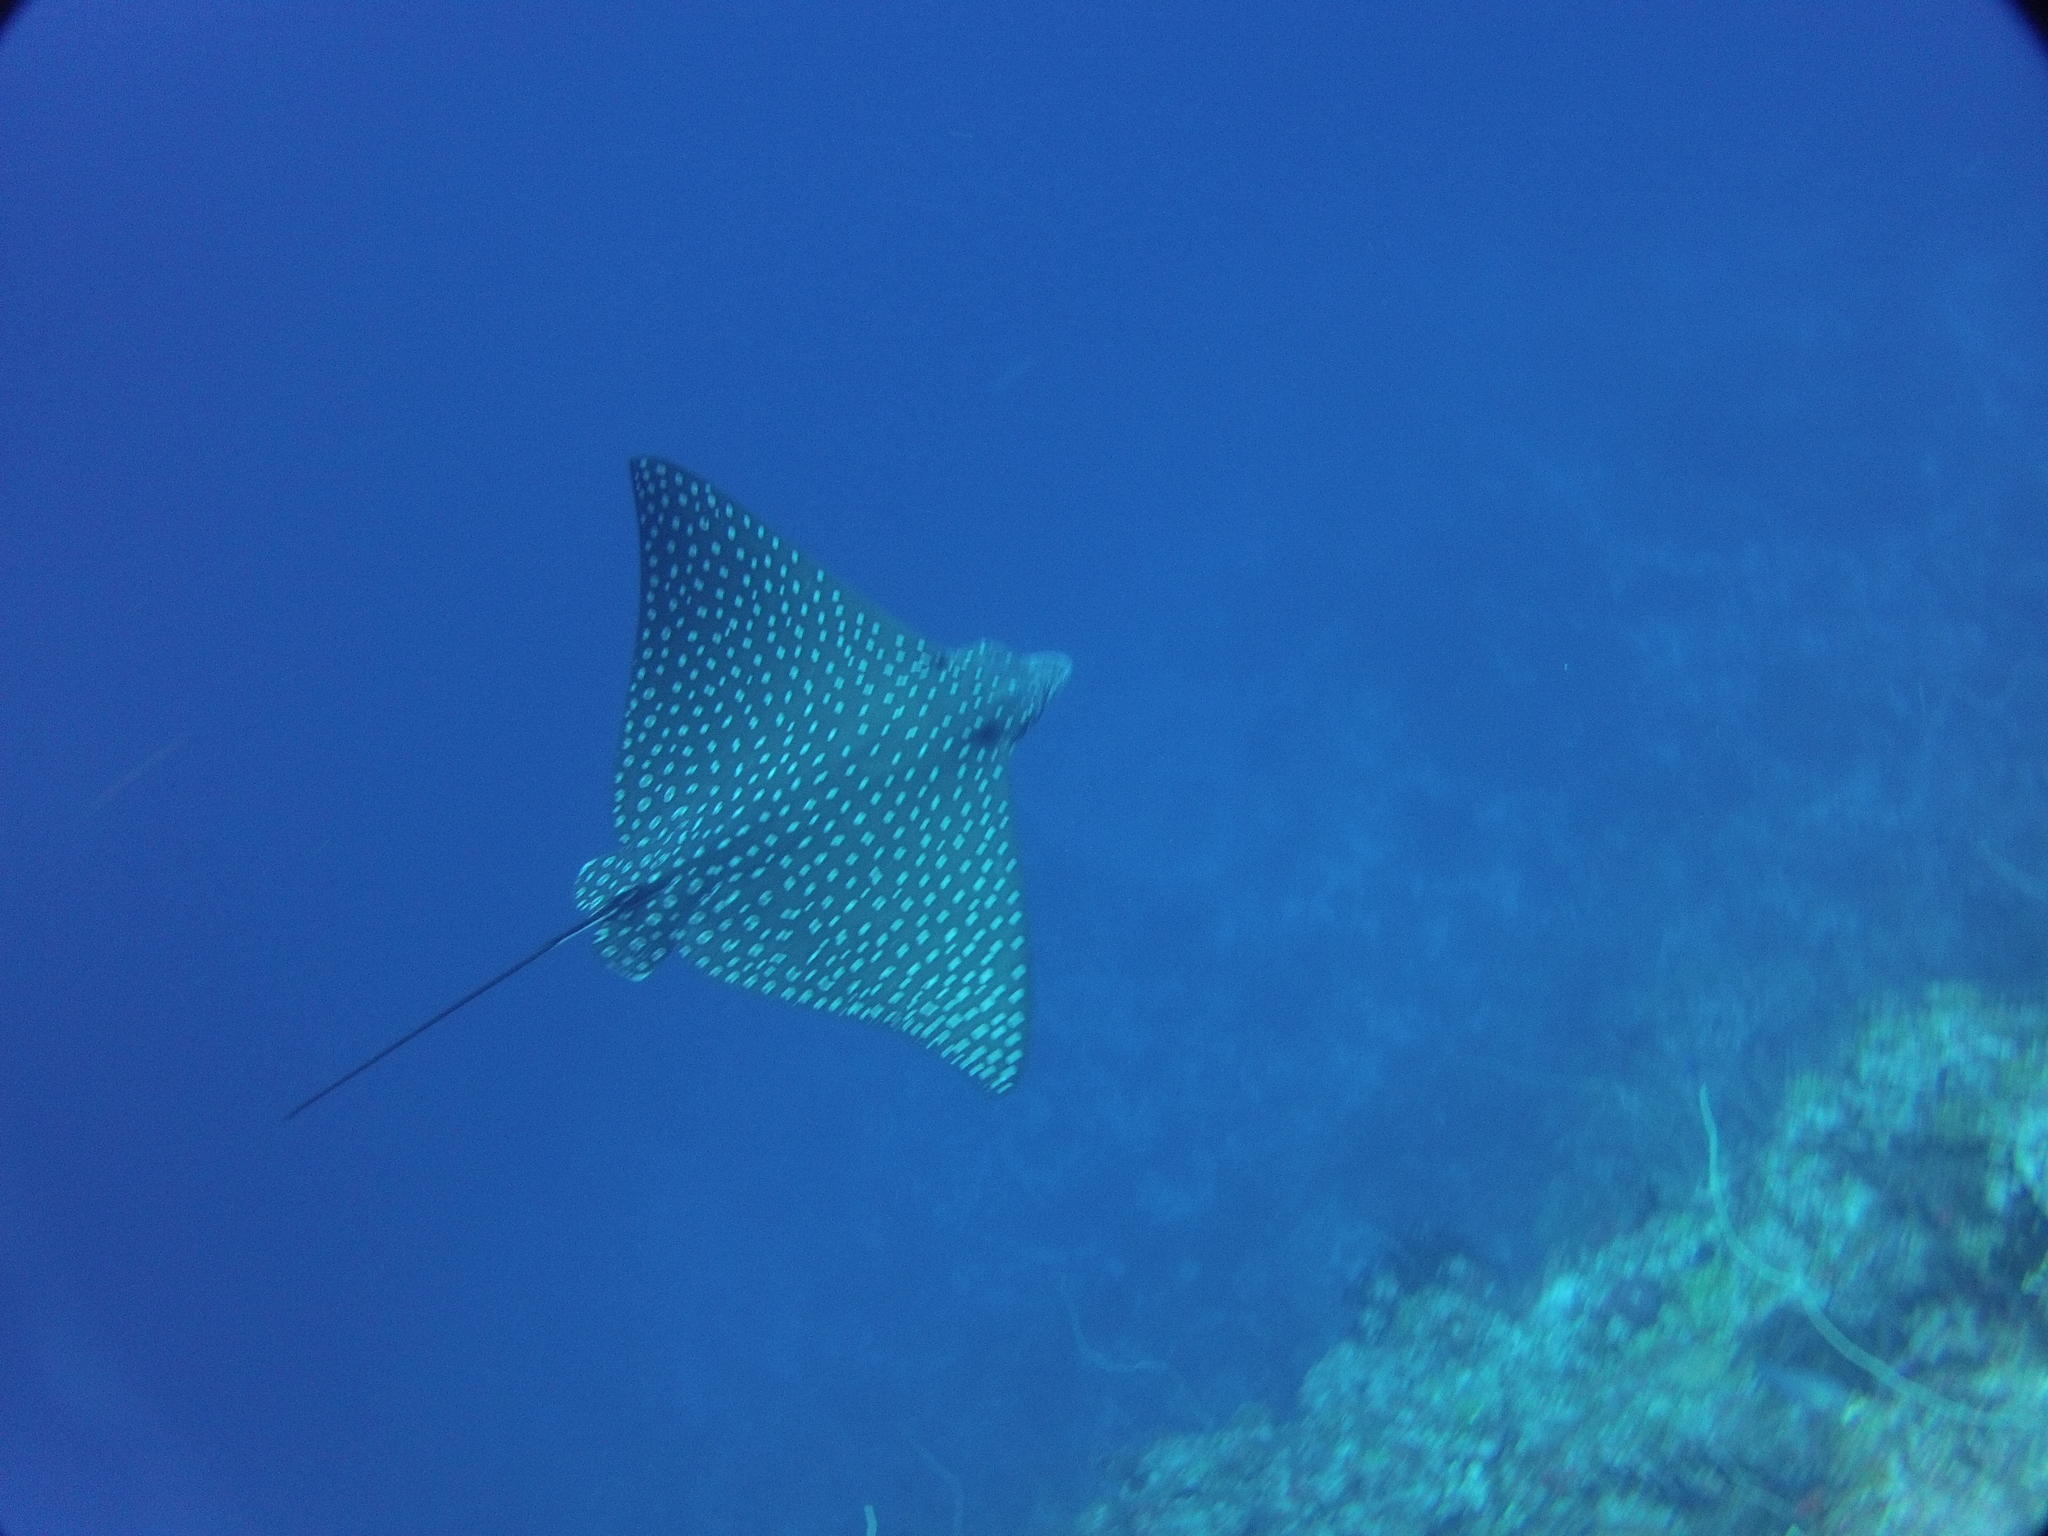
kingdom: Animalia
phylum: Chordata
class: Elasmobranchii
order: Myliobatiformes
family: Myliobatidae
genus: Aetobatus
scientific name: Aetobatus narinari
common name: Spotted eagle ray
